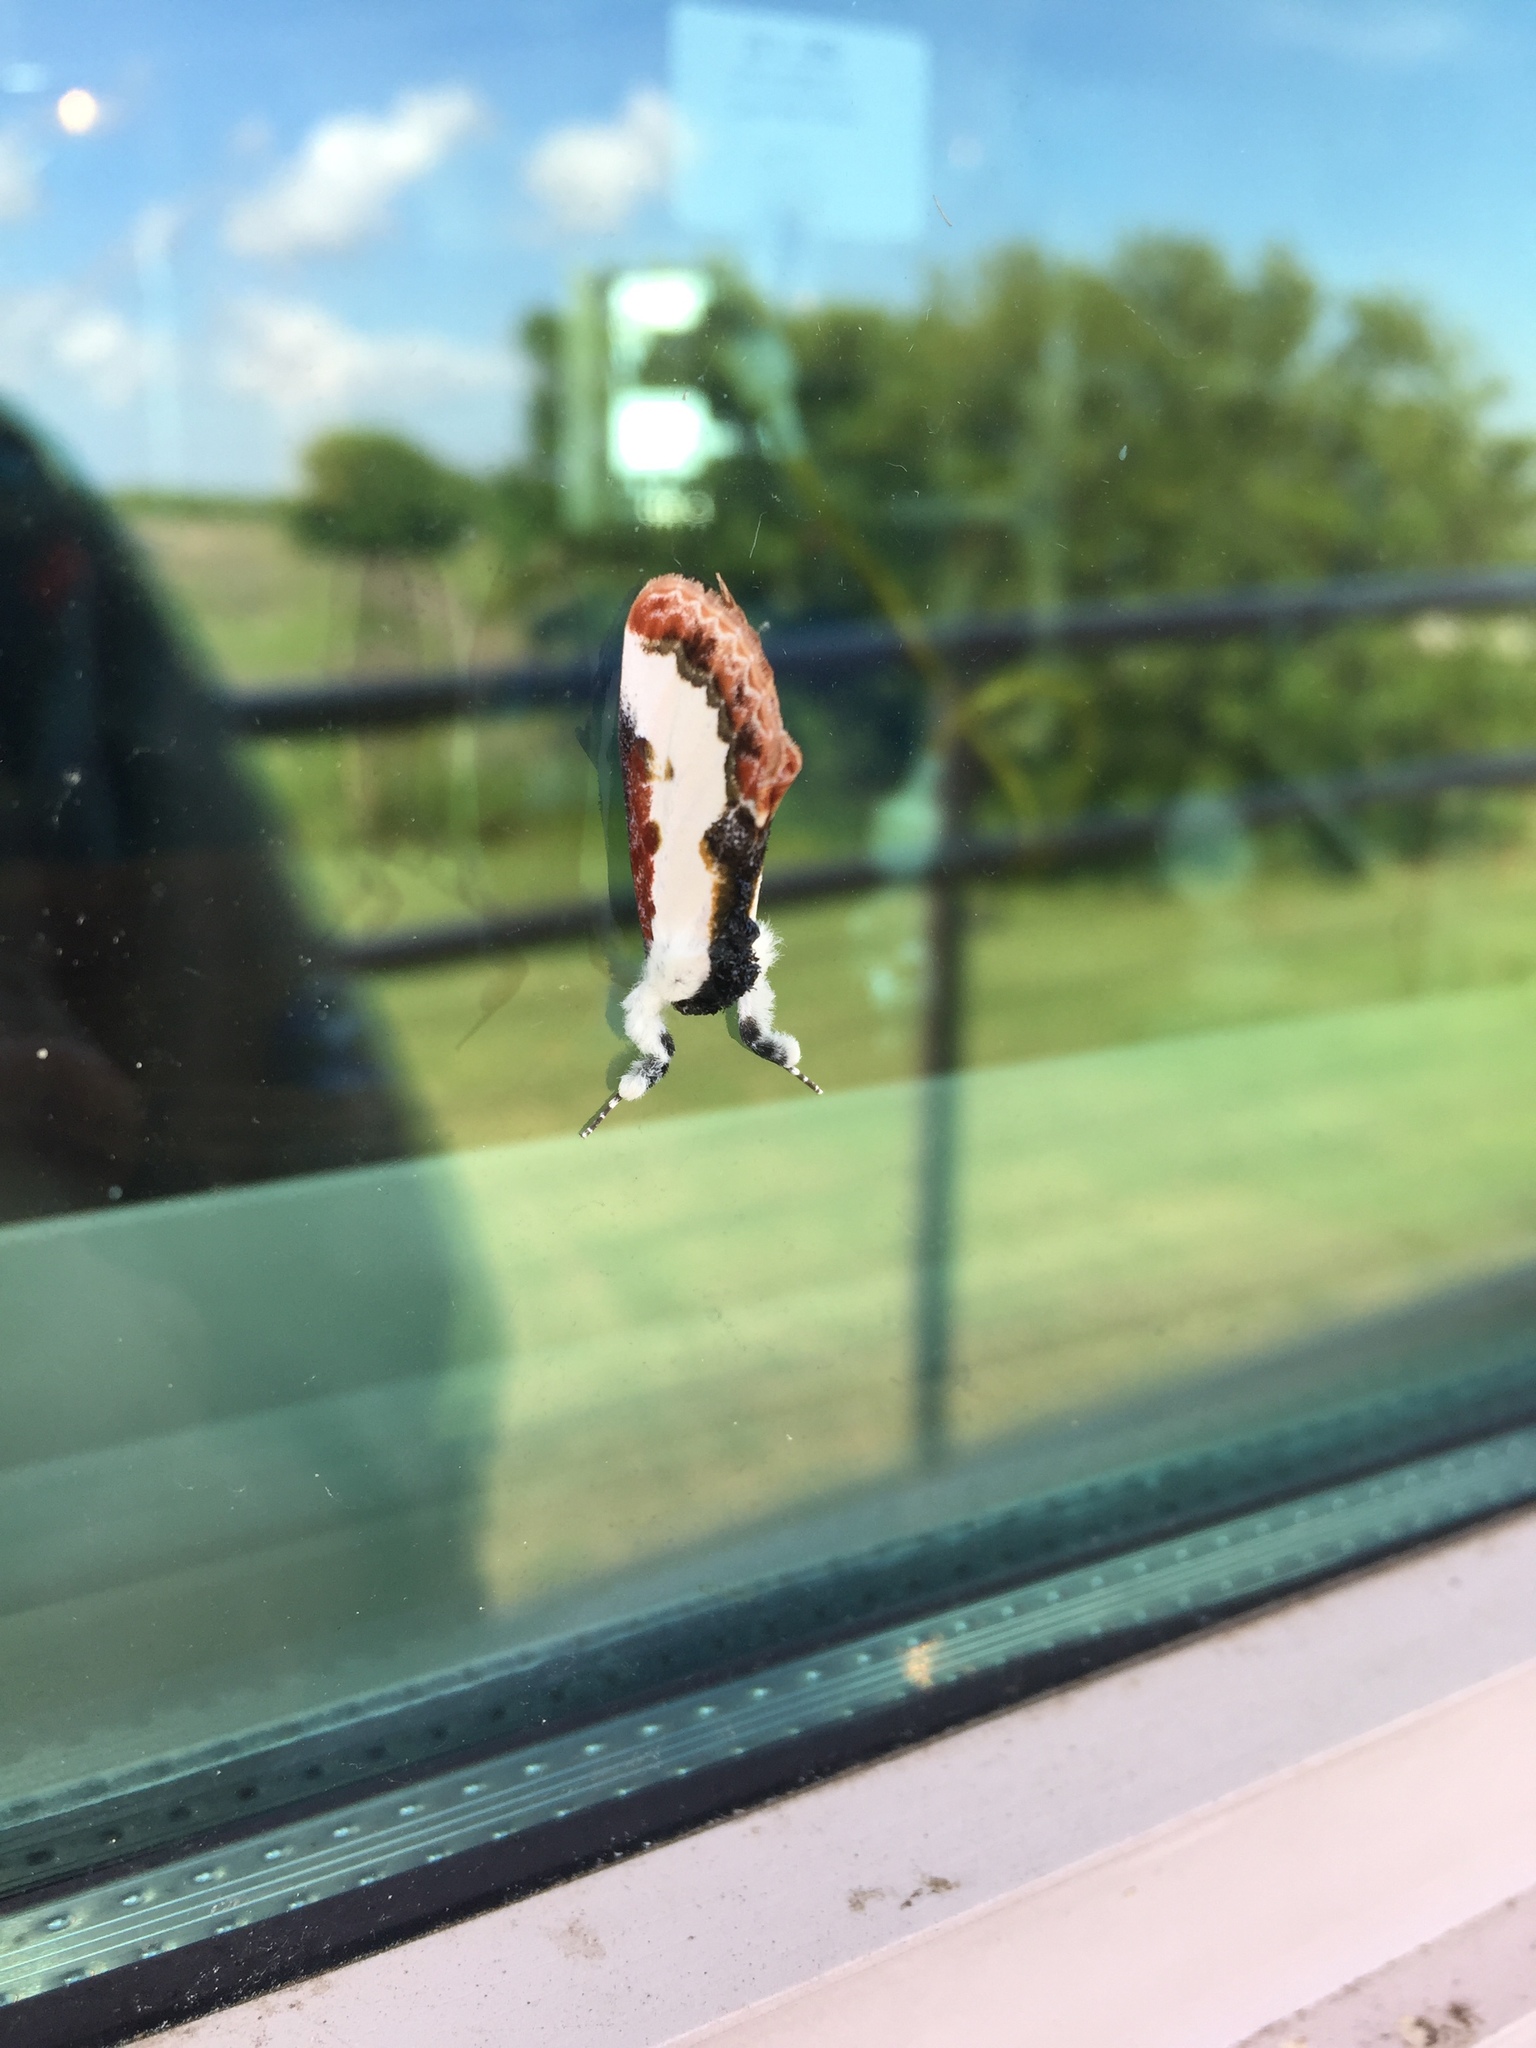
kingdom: Animalia
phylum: Arthropoda
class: Insecta
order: Lepidoptera
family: Noctuidae
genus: Eudryas
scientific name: Eudryas unio
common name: Pearly wood-nymph
